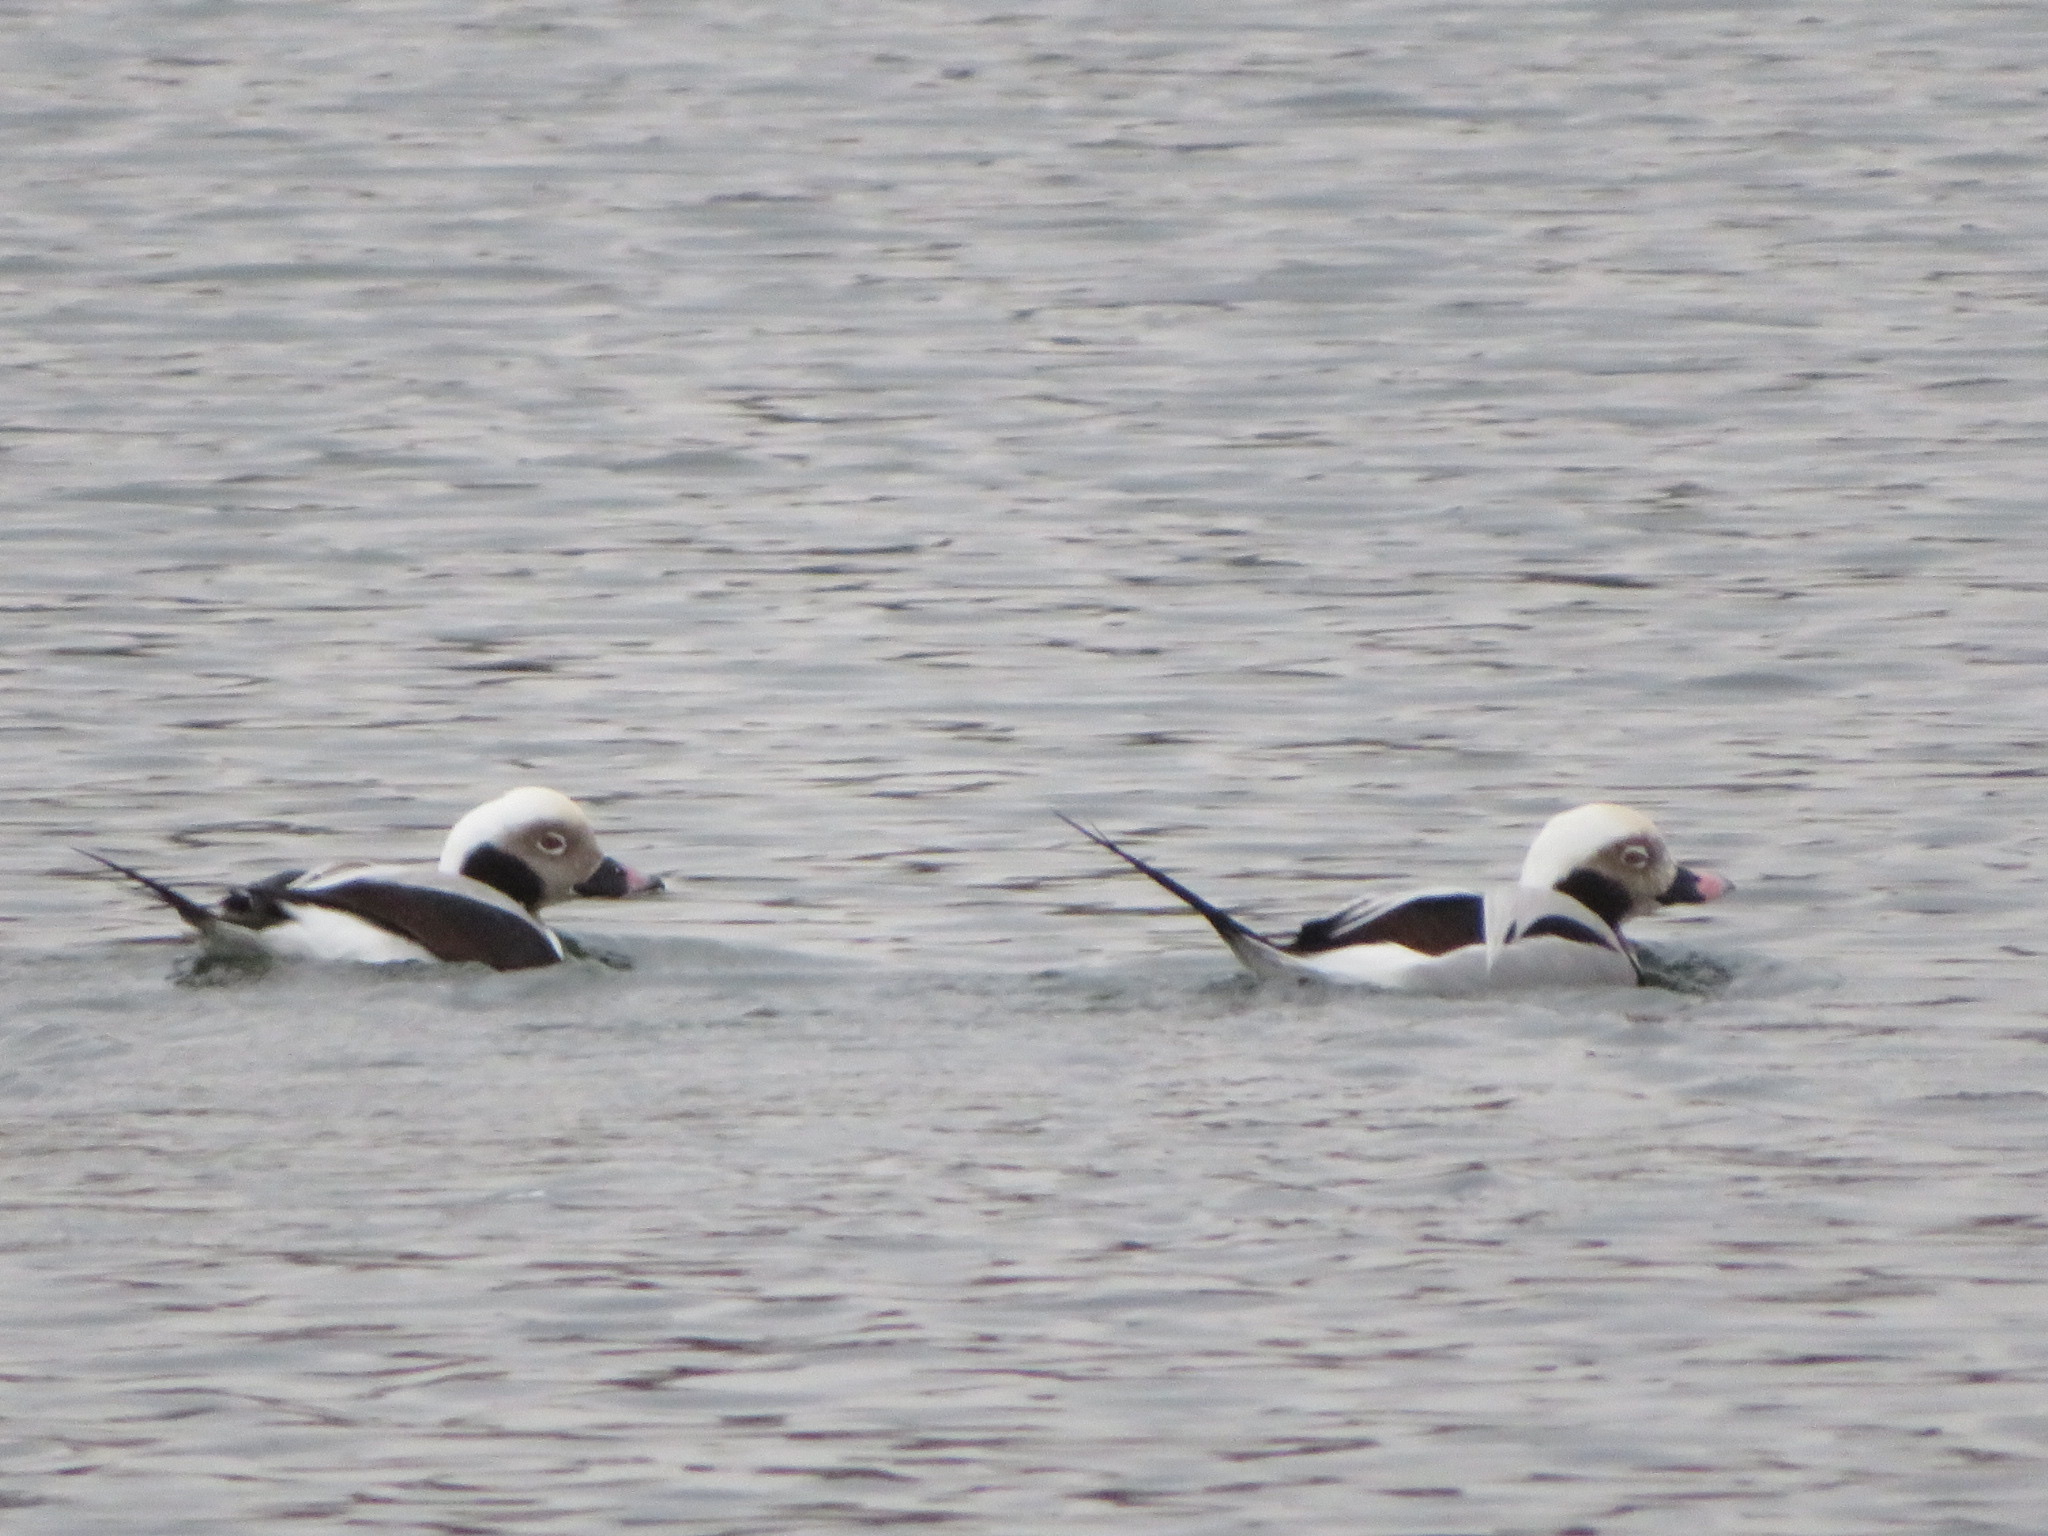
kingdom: Animalia
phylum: Chordata
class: Aves
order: Anseriformes
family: Anatidae
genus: Clangula
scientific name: Clangula hyemalis
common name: Long-tailed duck
